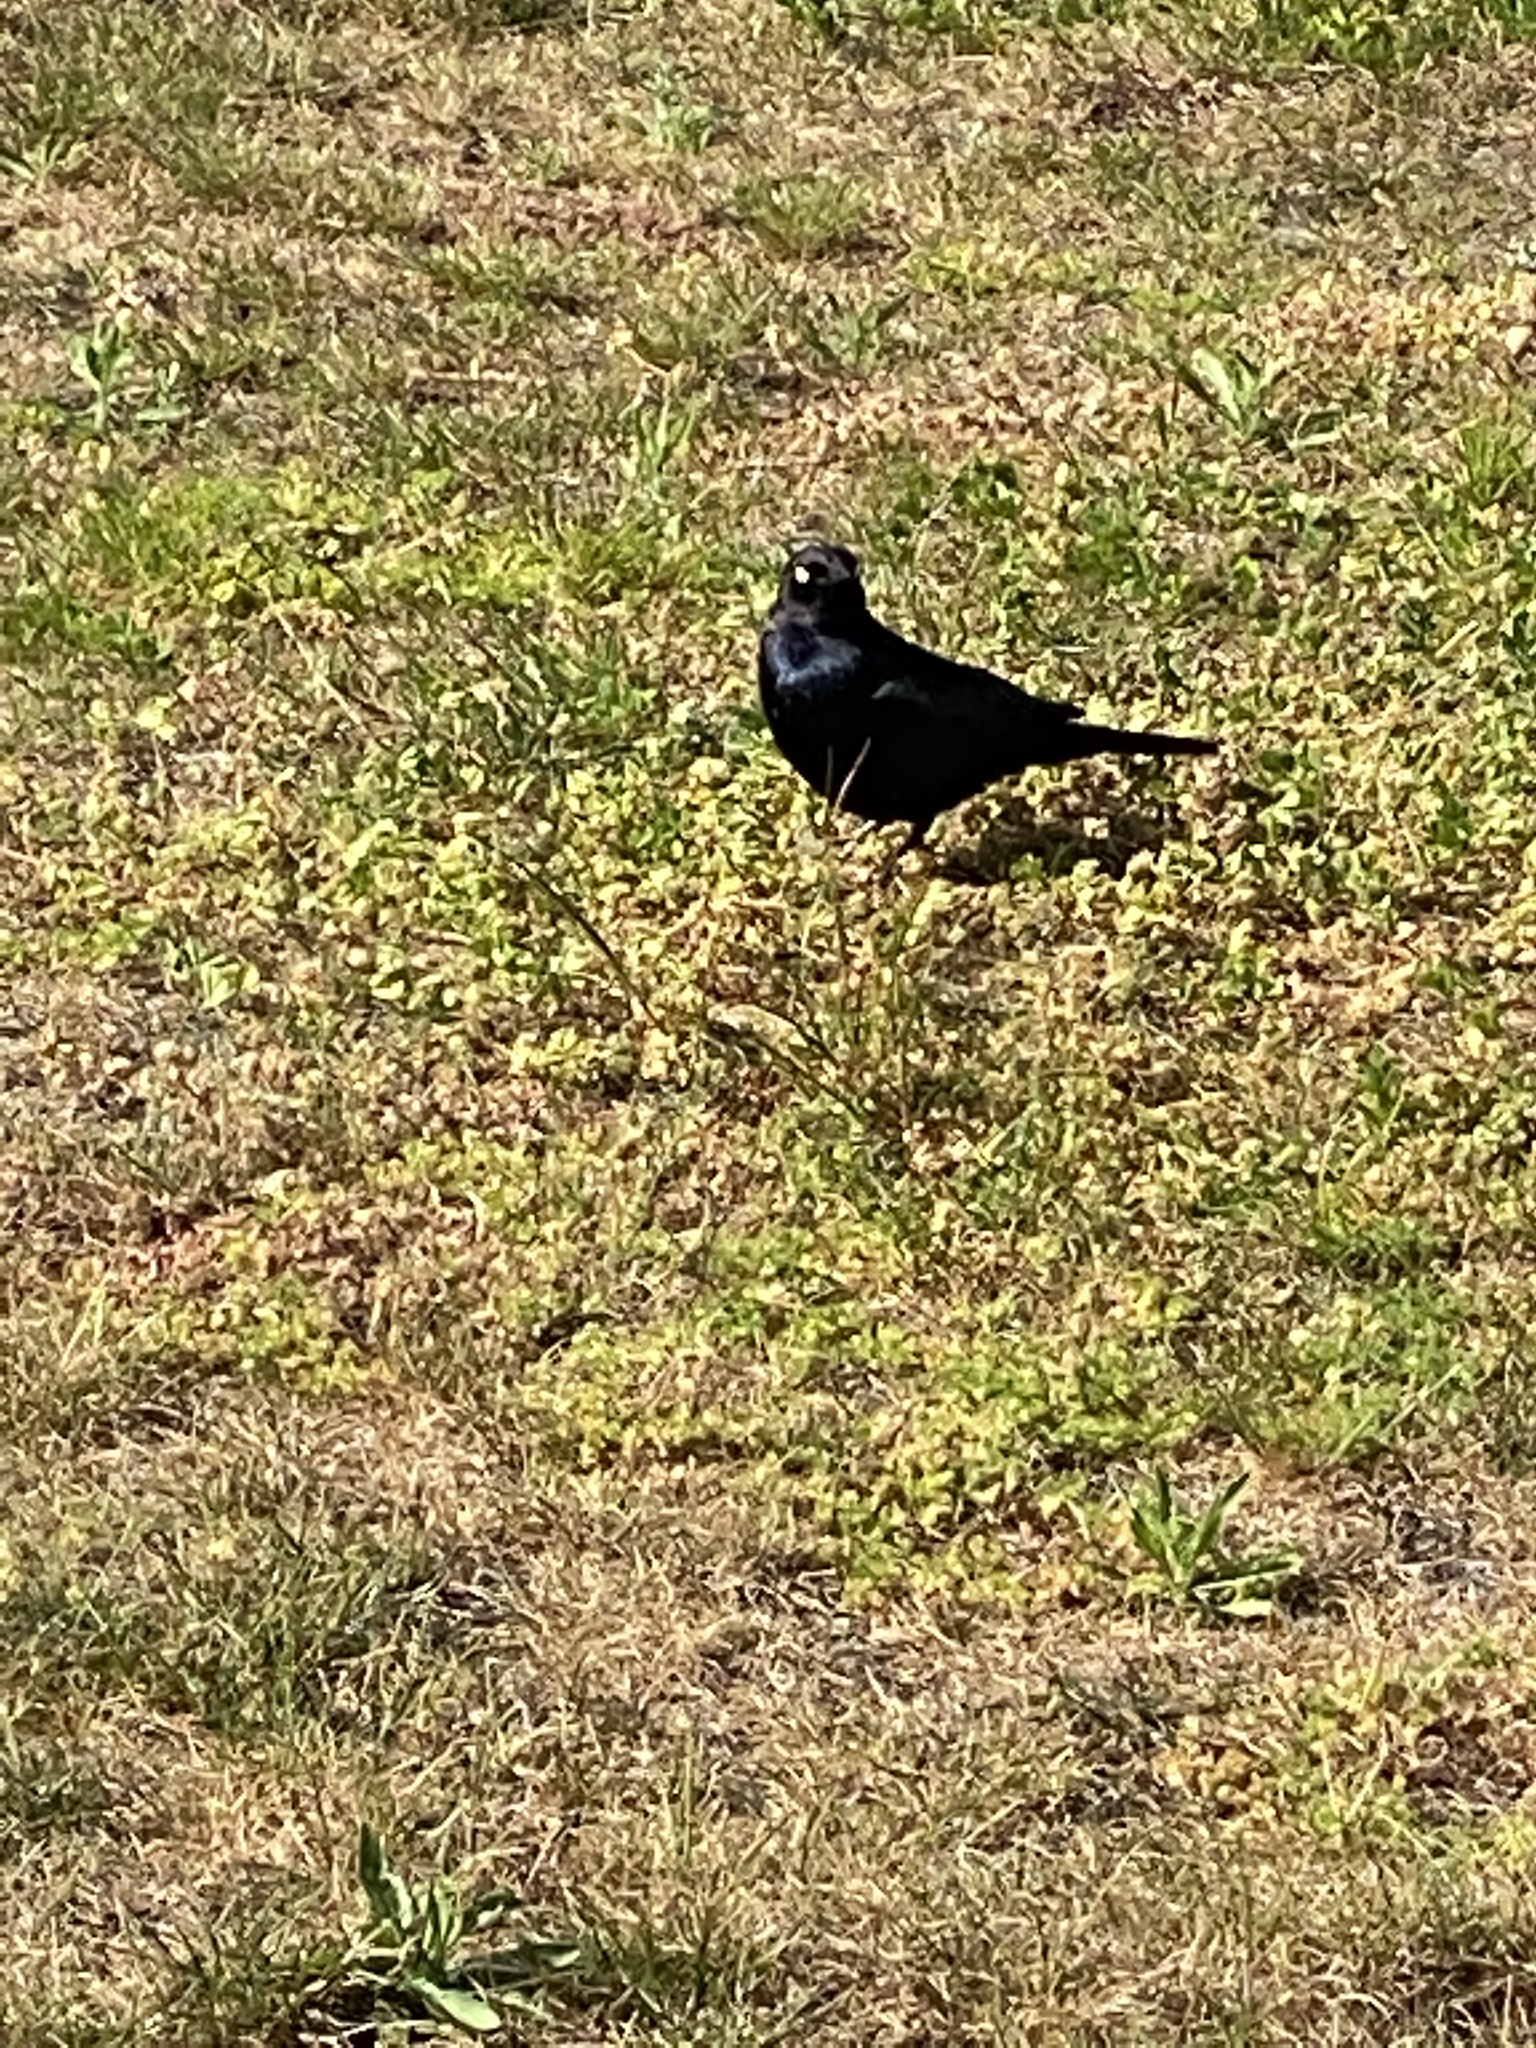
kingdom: Animalia
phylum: Chordata
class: Aves
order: Passeriformes
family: Icteridae
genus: Euphagus
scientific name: Euphagus cyanocephalus
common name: Brewer's blackbird
